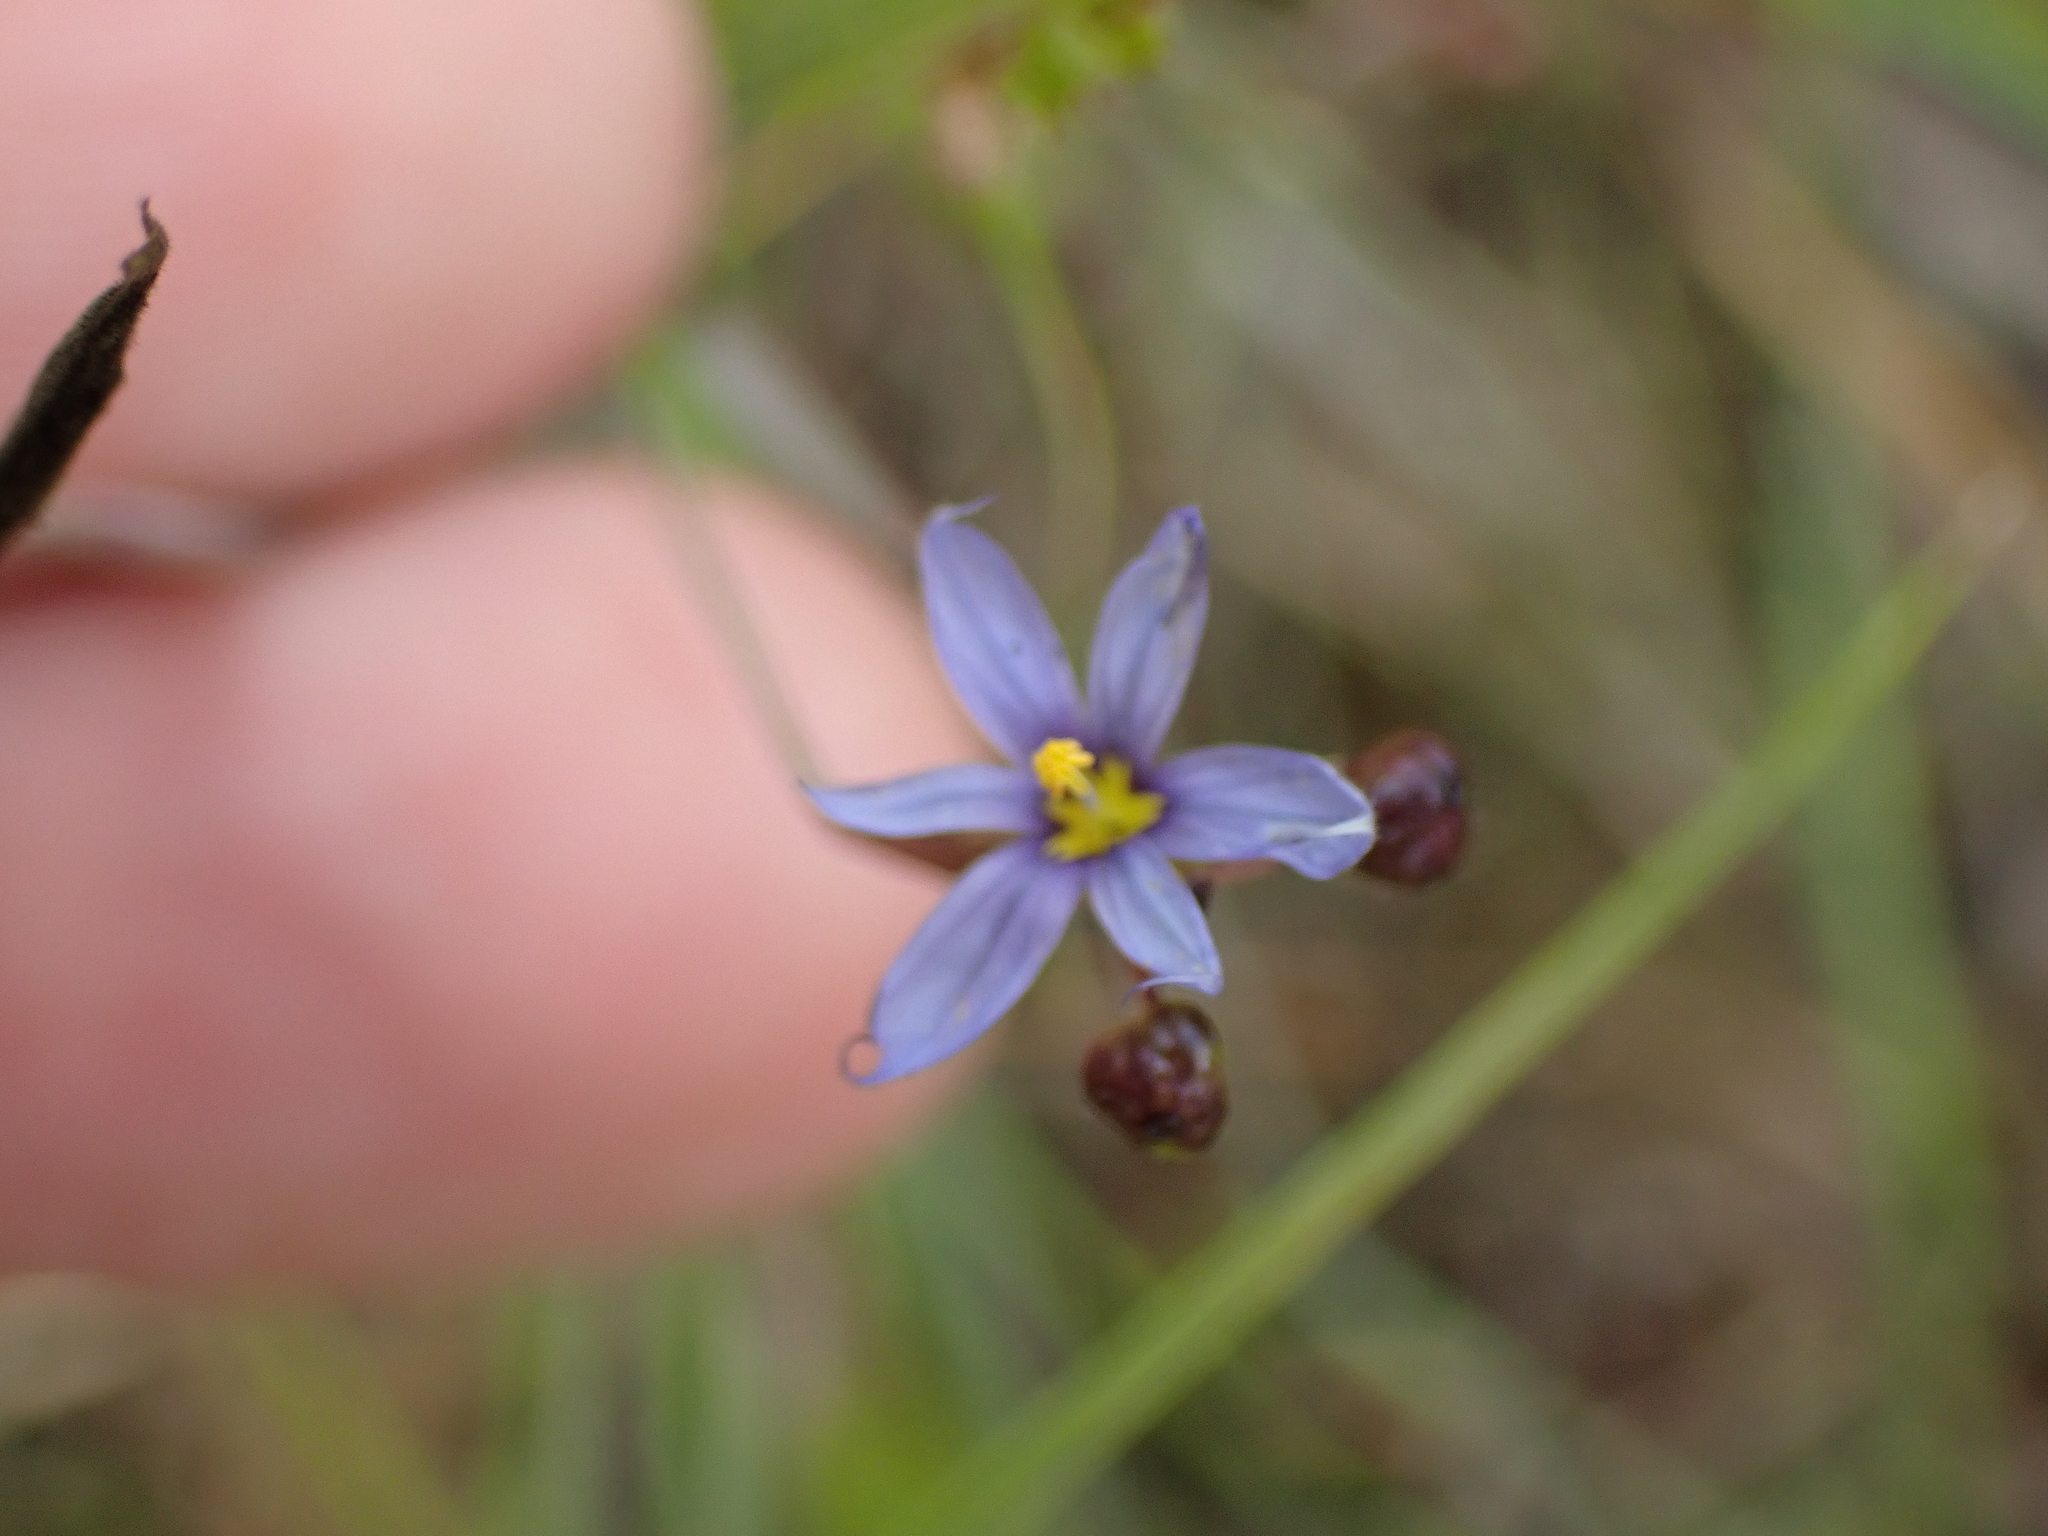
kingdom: Plantae
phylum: Tracheophyta
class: Liliopsida
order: Asparagales
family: Iridaceae
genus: Sisyrinchium
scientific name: Sisyrinchium atlanticum
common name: Eastern blue-eyed-grass
